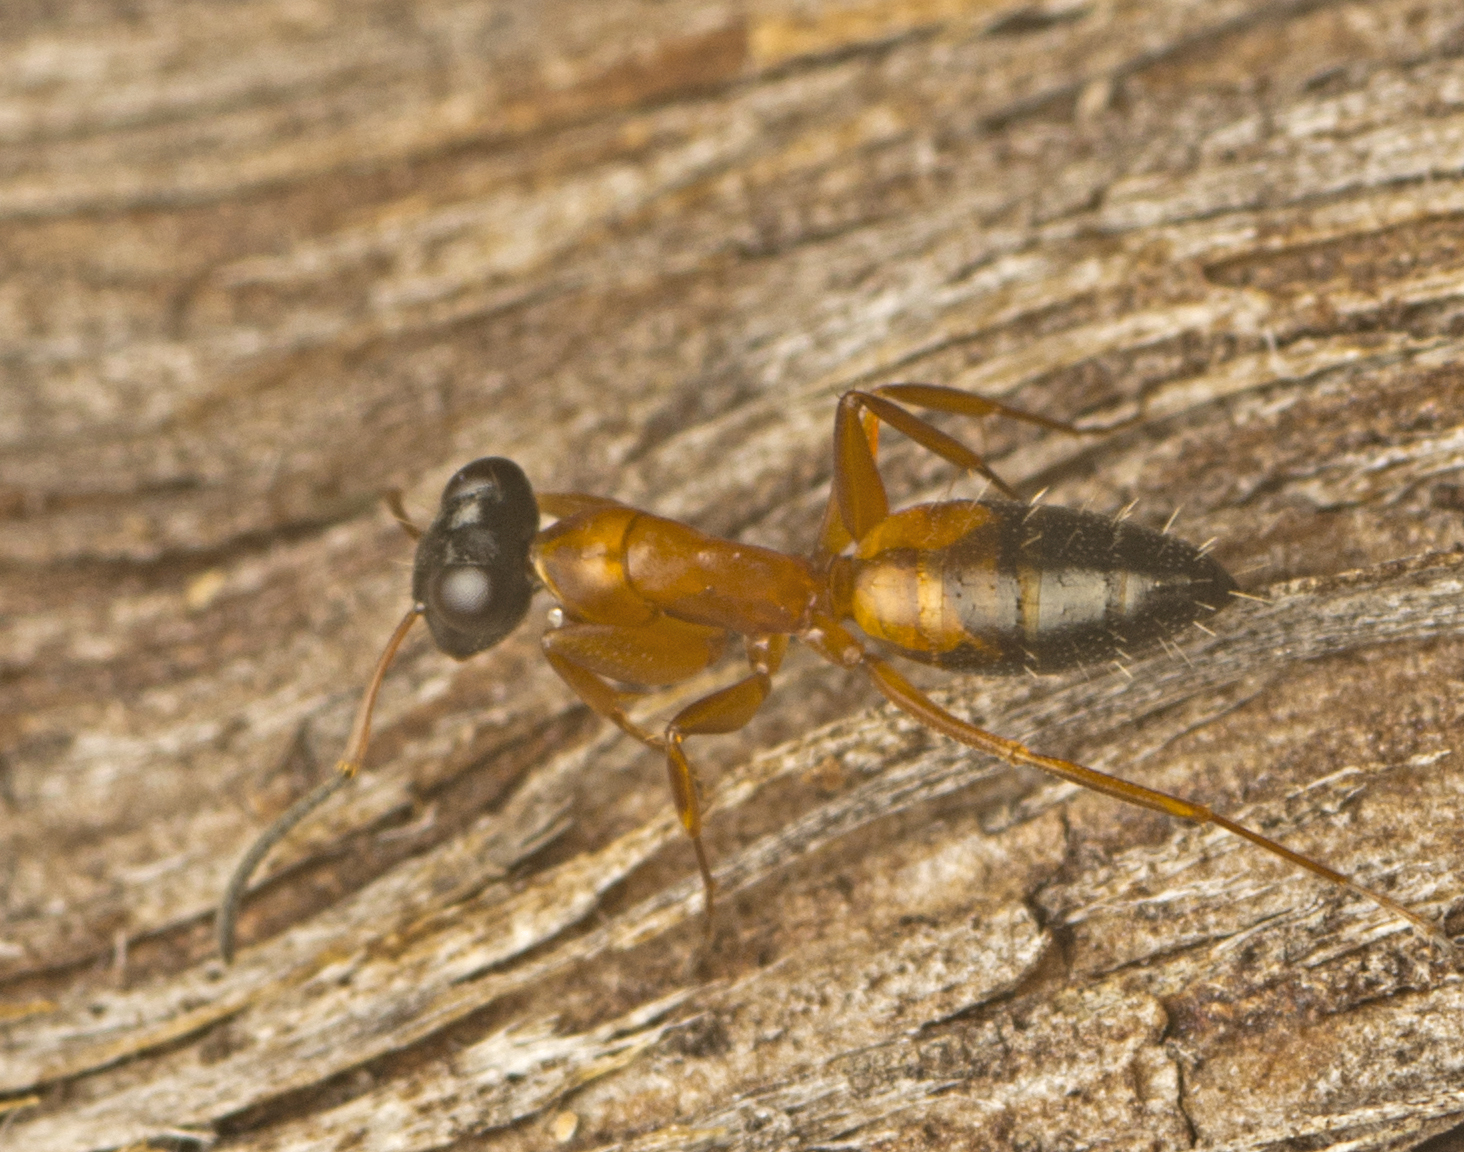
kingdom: Animalia
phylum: Arthropoda
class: Insecta
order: Hymenoptera
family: Formicidae
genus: Opisthopsis
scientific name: Opisthopsis rufithorax
